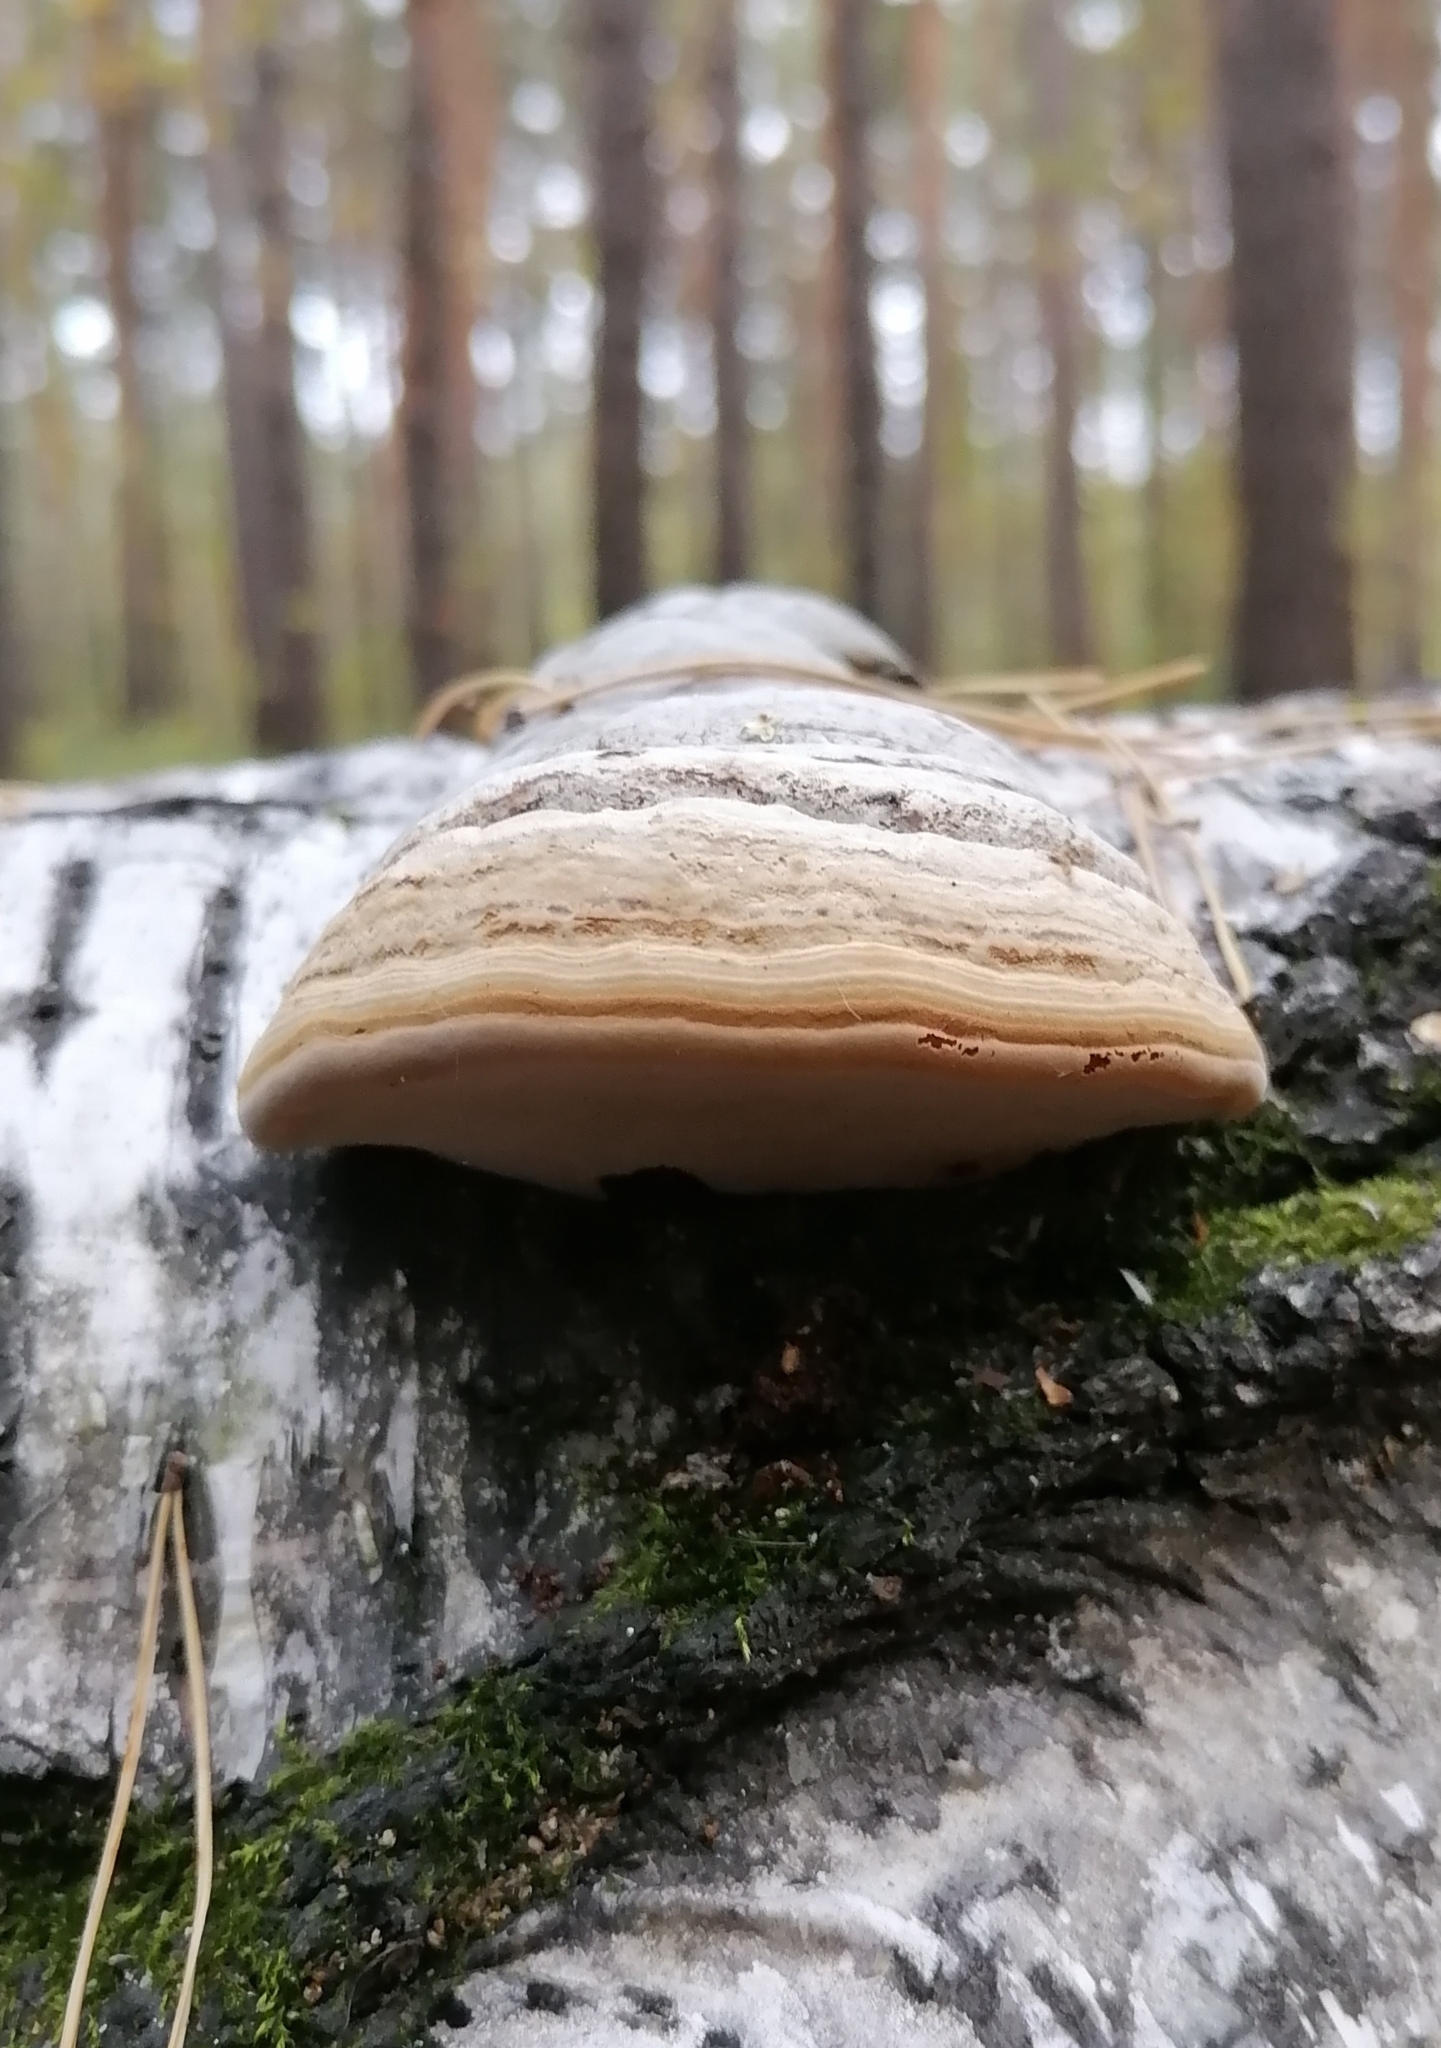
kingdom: Fungi
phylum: Basidiomycota
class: Agaricomycetes
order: Polyporales
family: Polyporaceae
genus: Fomes
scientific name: Fomes fomentarius
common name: Hoof fungus
